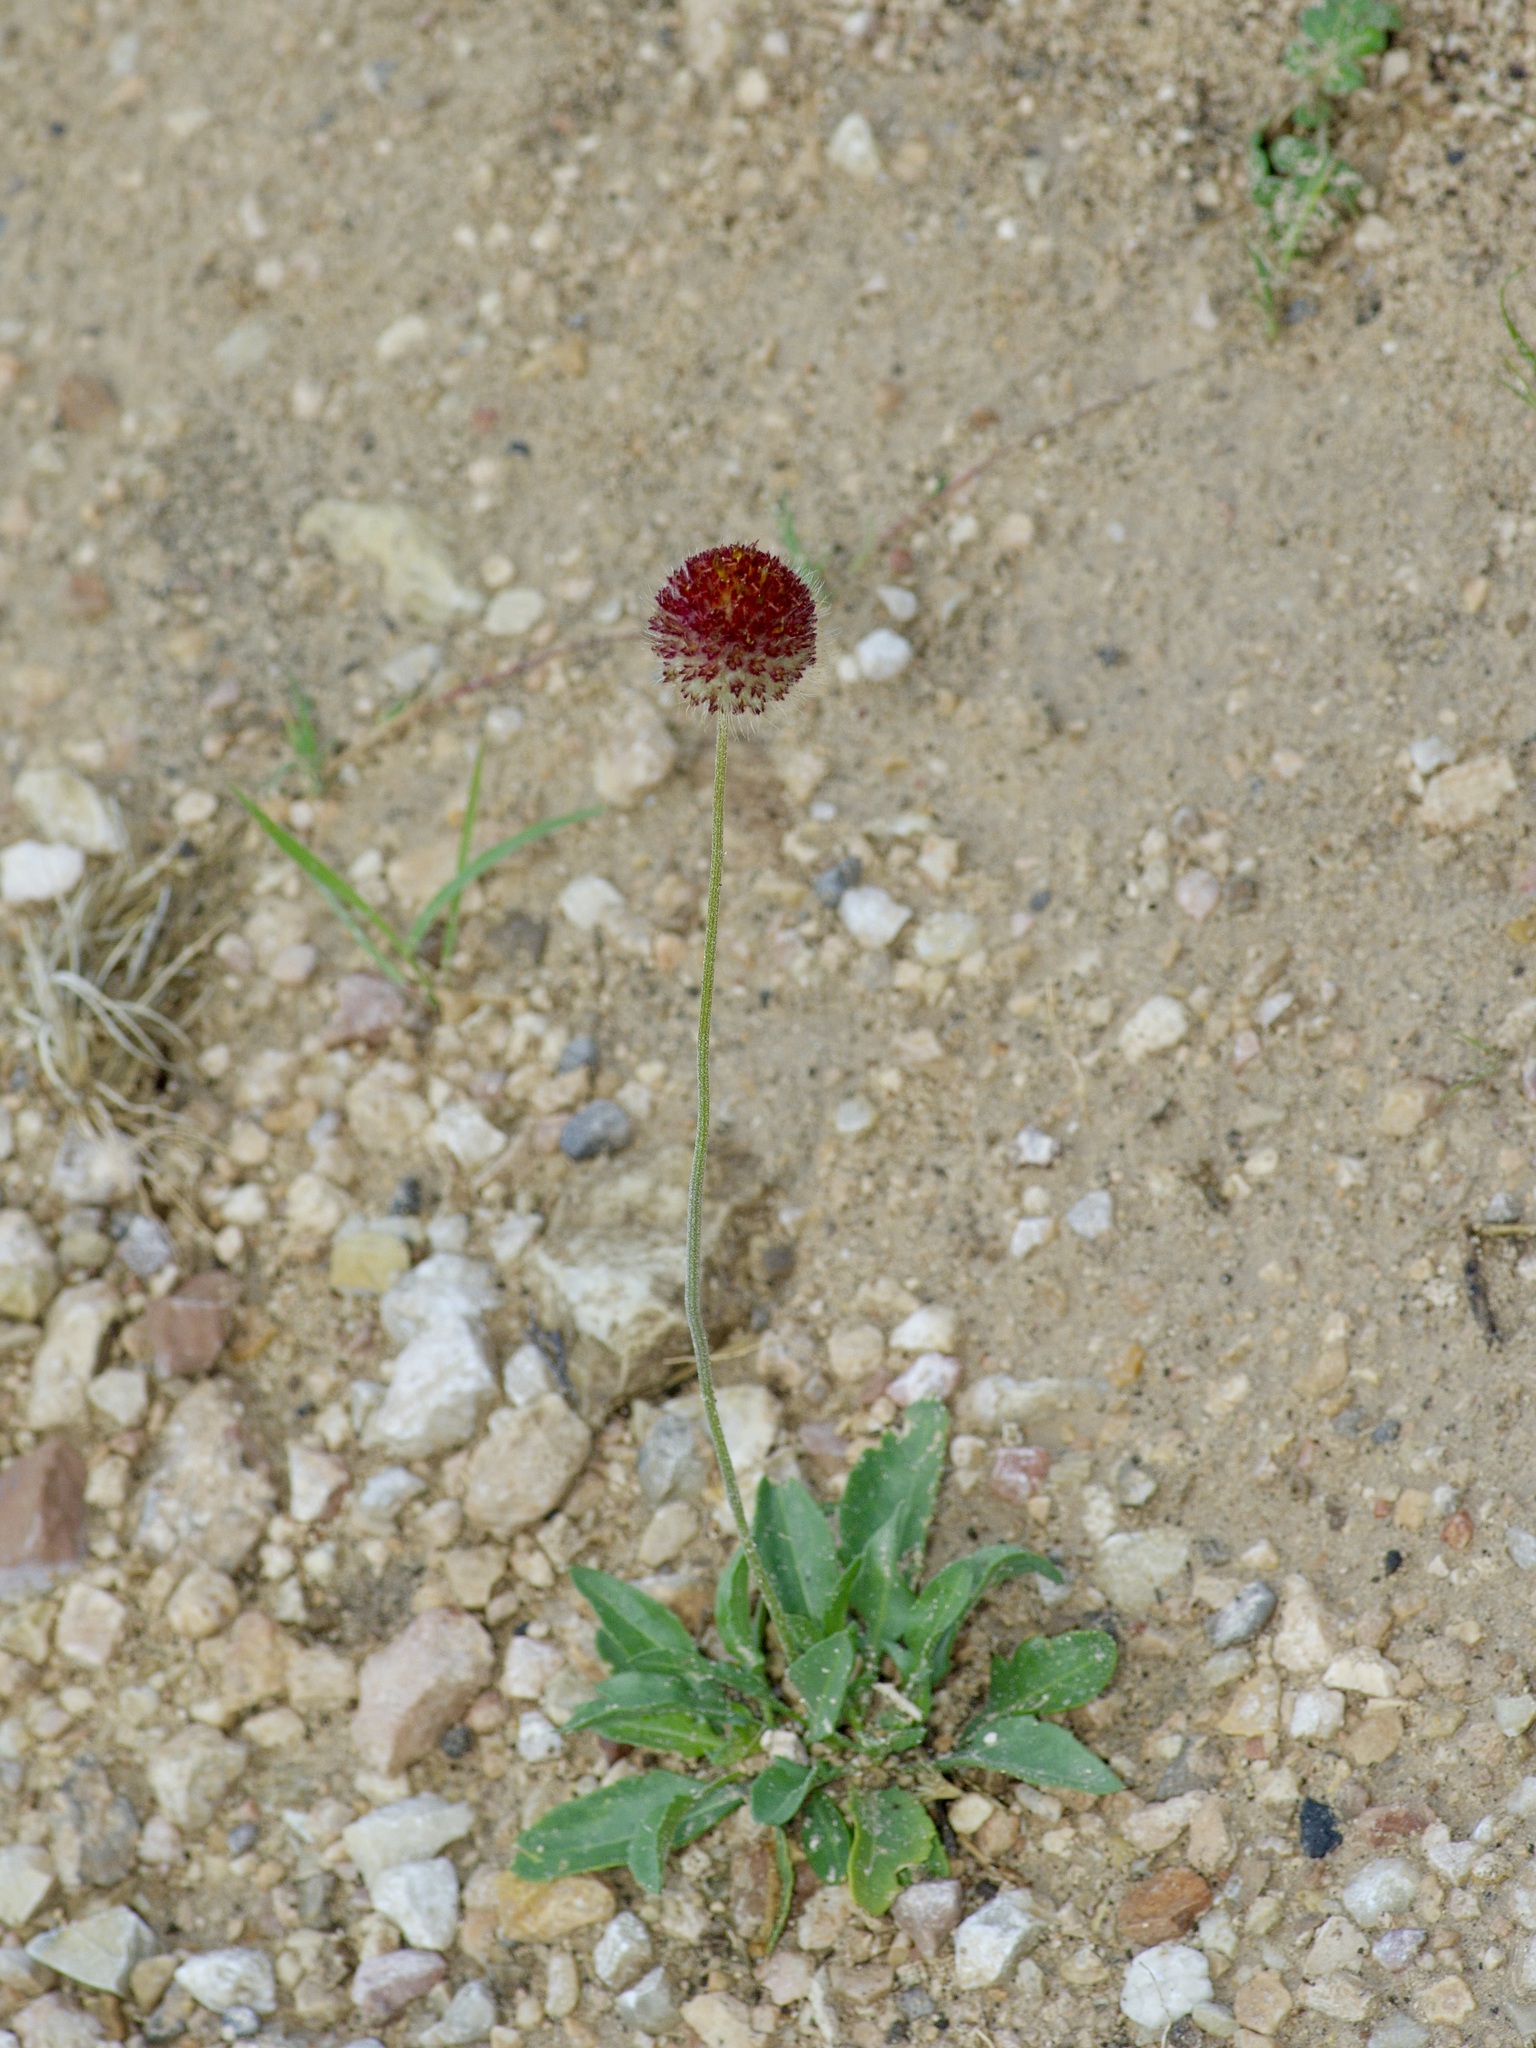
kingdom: Plantae
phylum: Tracheophyta
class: Magnoliopsida
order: Asterales
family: Asteraceae
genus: Gaillardia
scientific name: Gaillardia suavis
